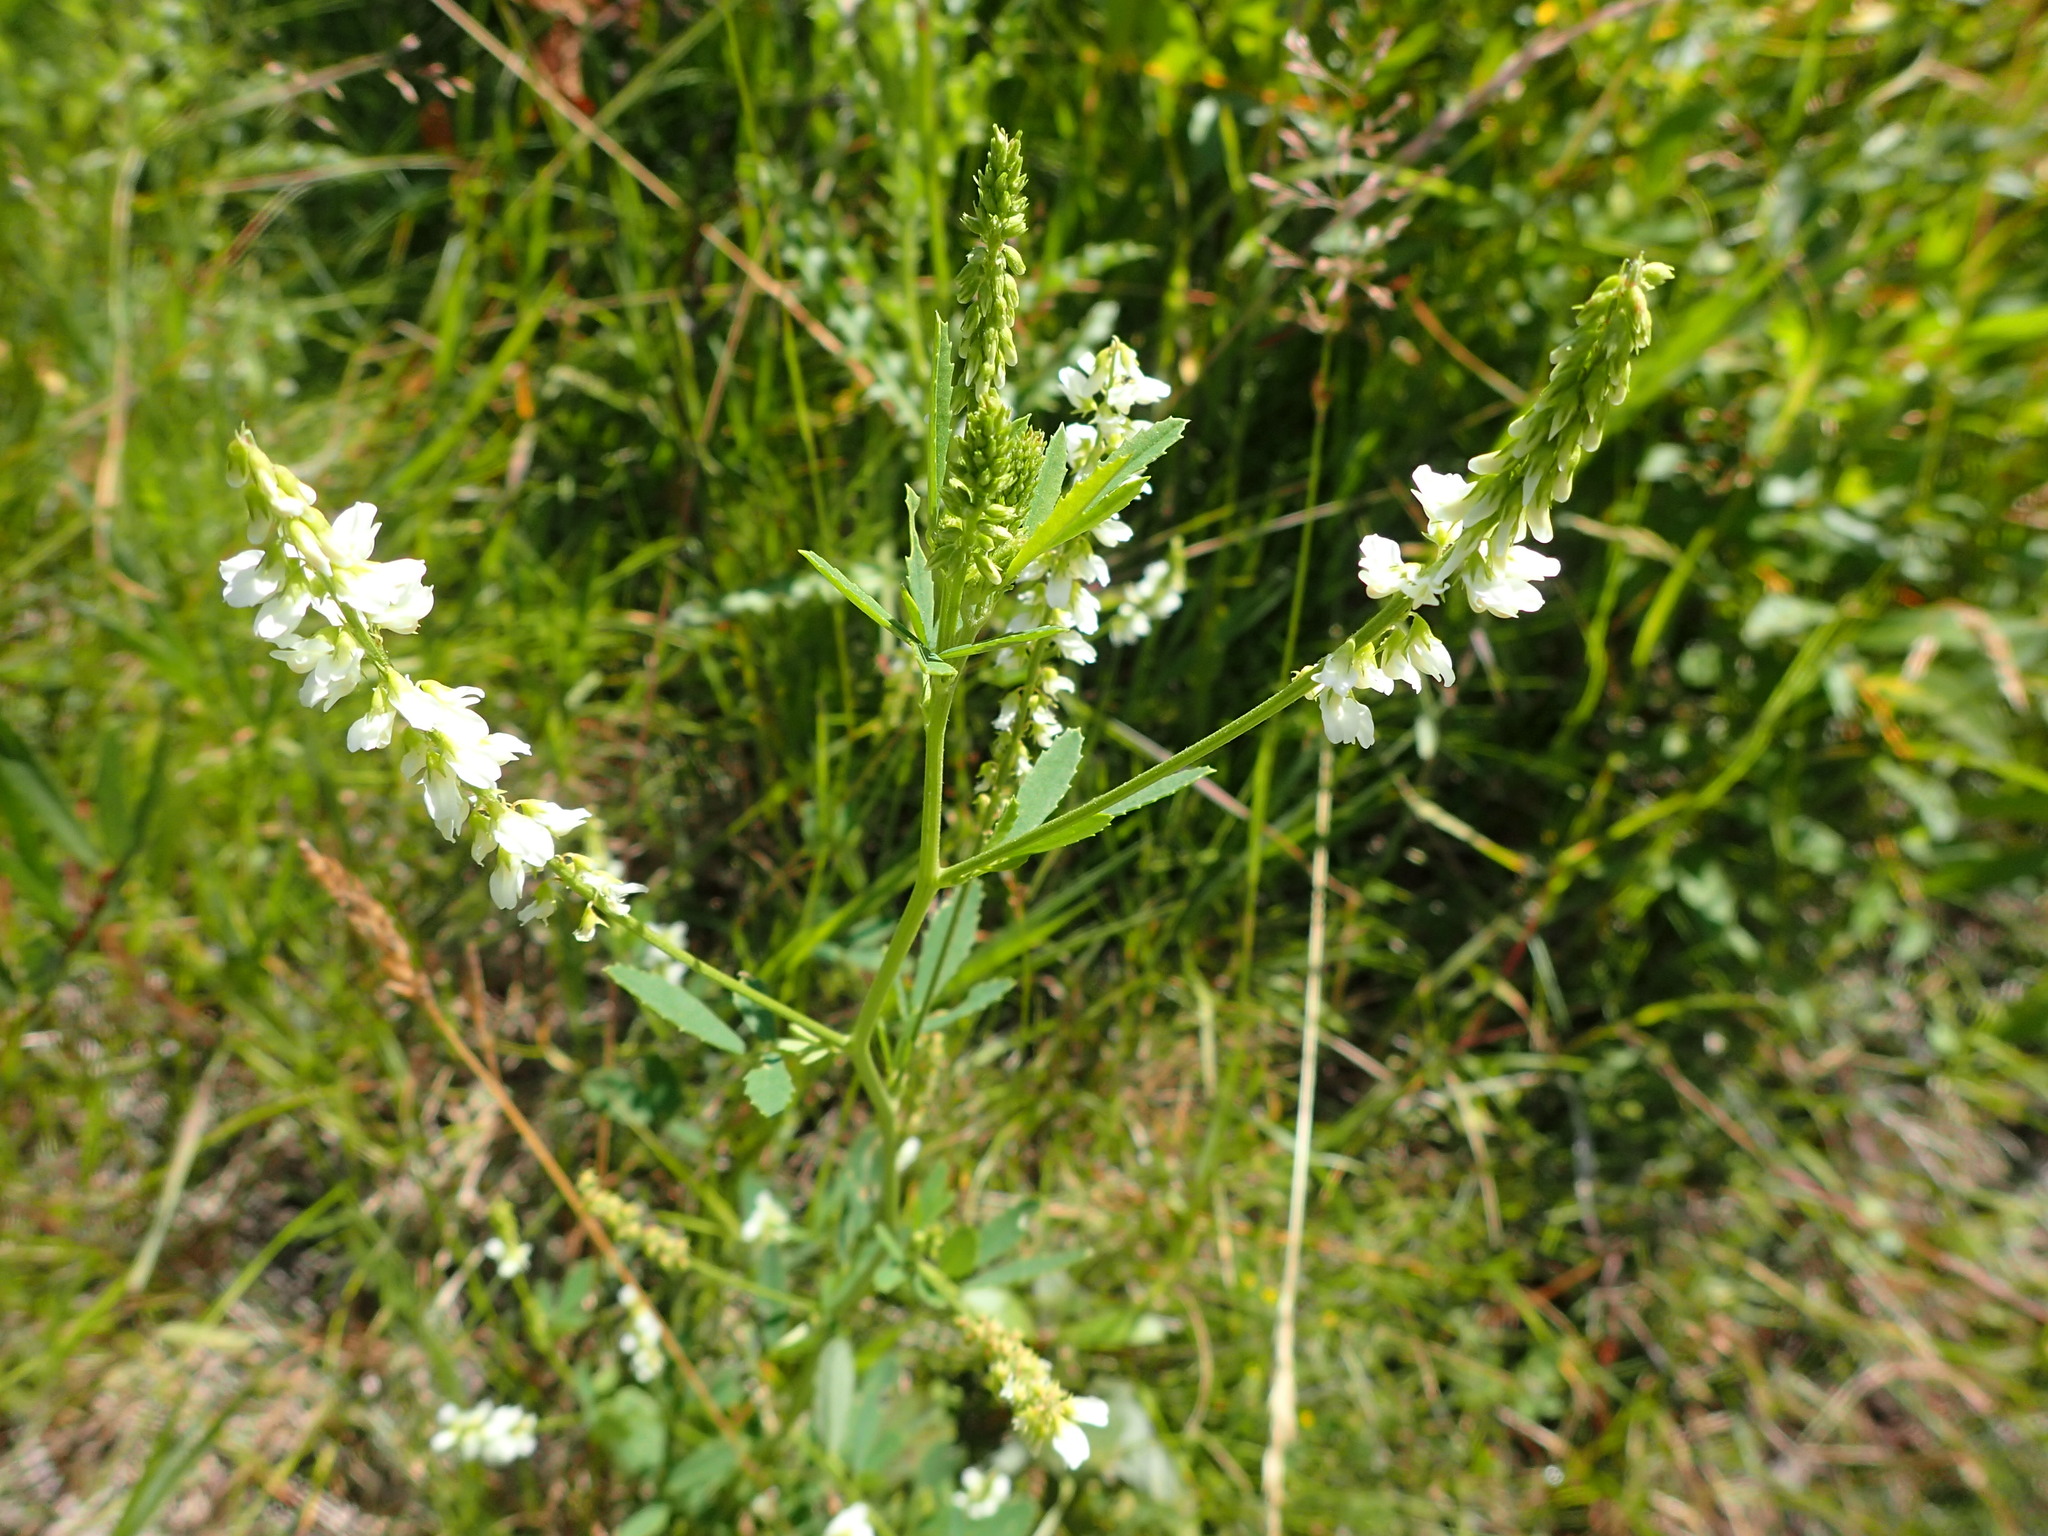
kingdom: Plantae
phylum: Tracheophyta
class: Magnoliopsida
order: Fabales
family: Fabaceae
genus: Melilotus
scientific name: Melilotus albus
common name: White melilot
